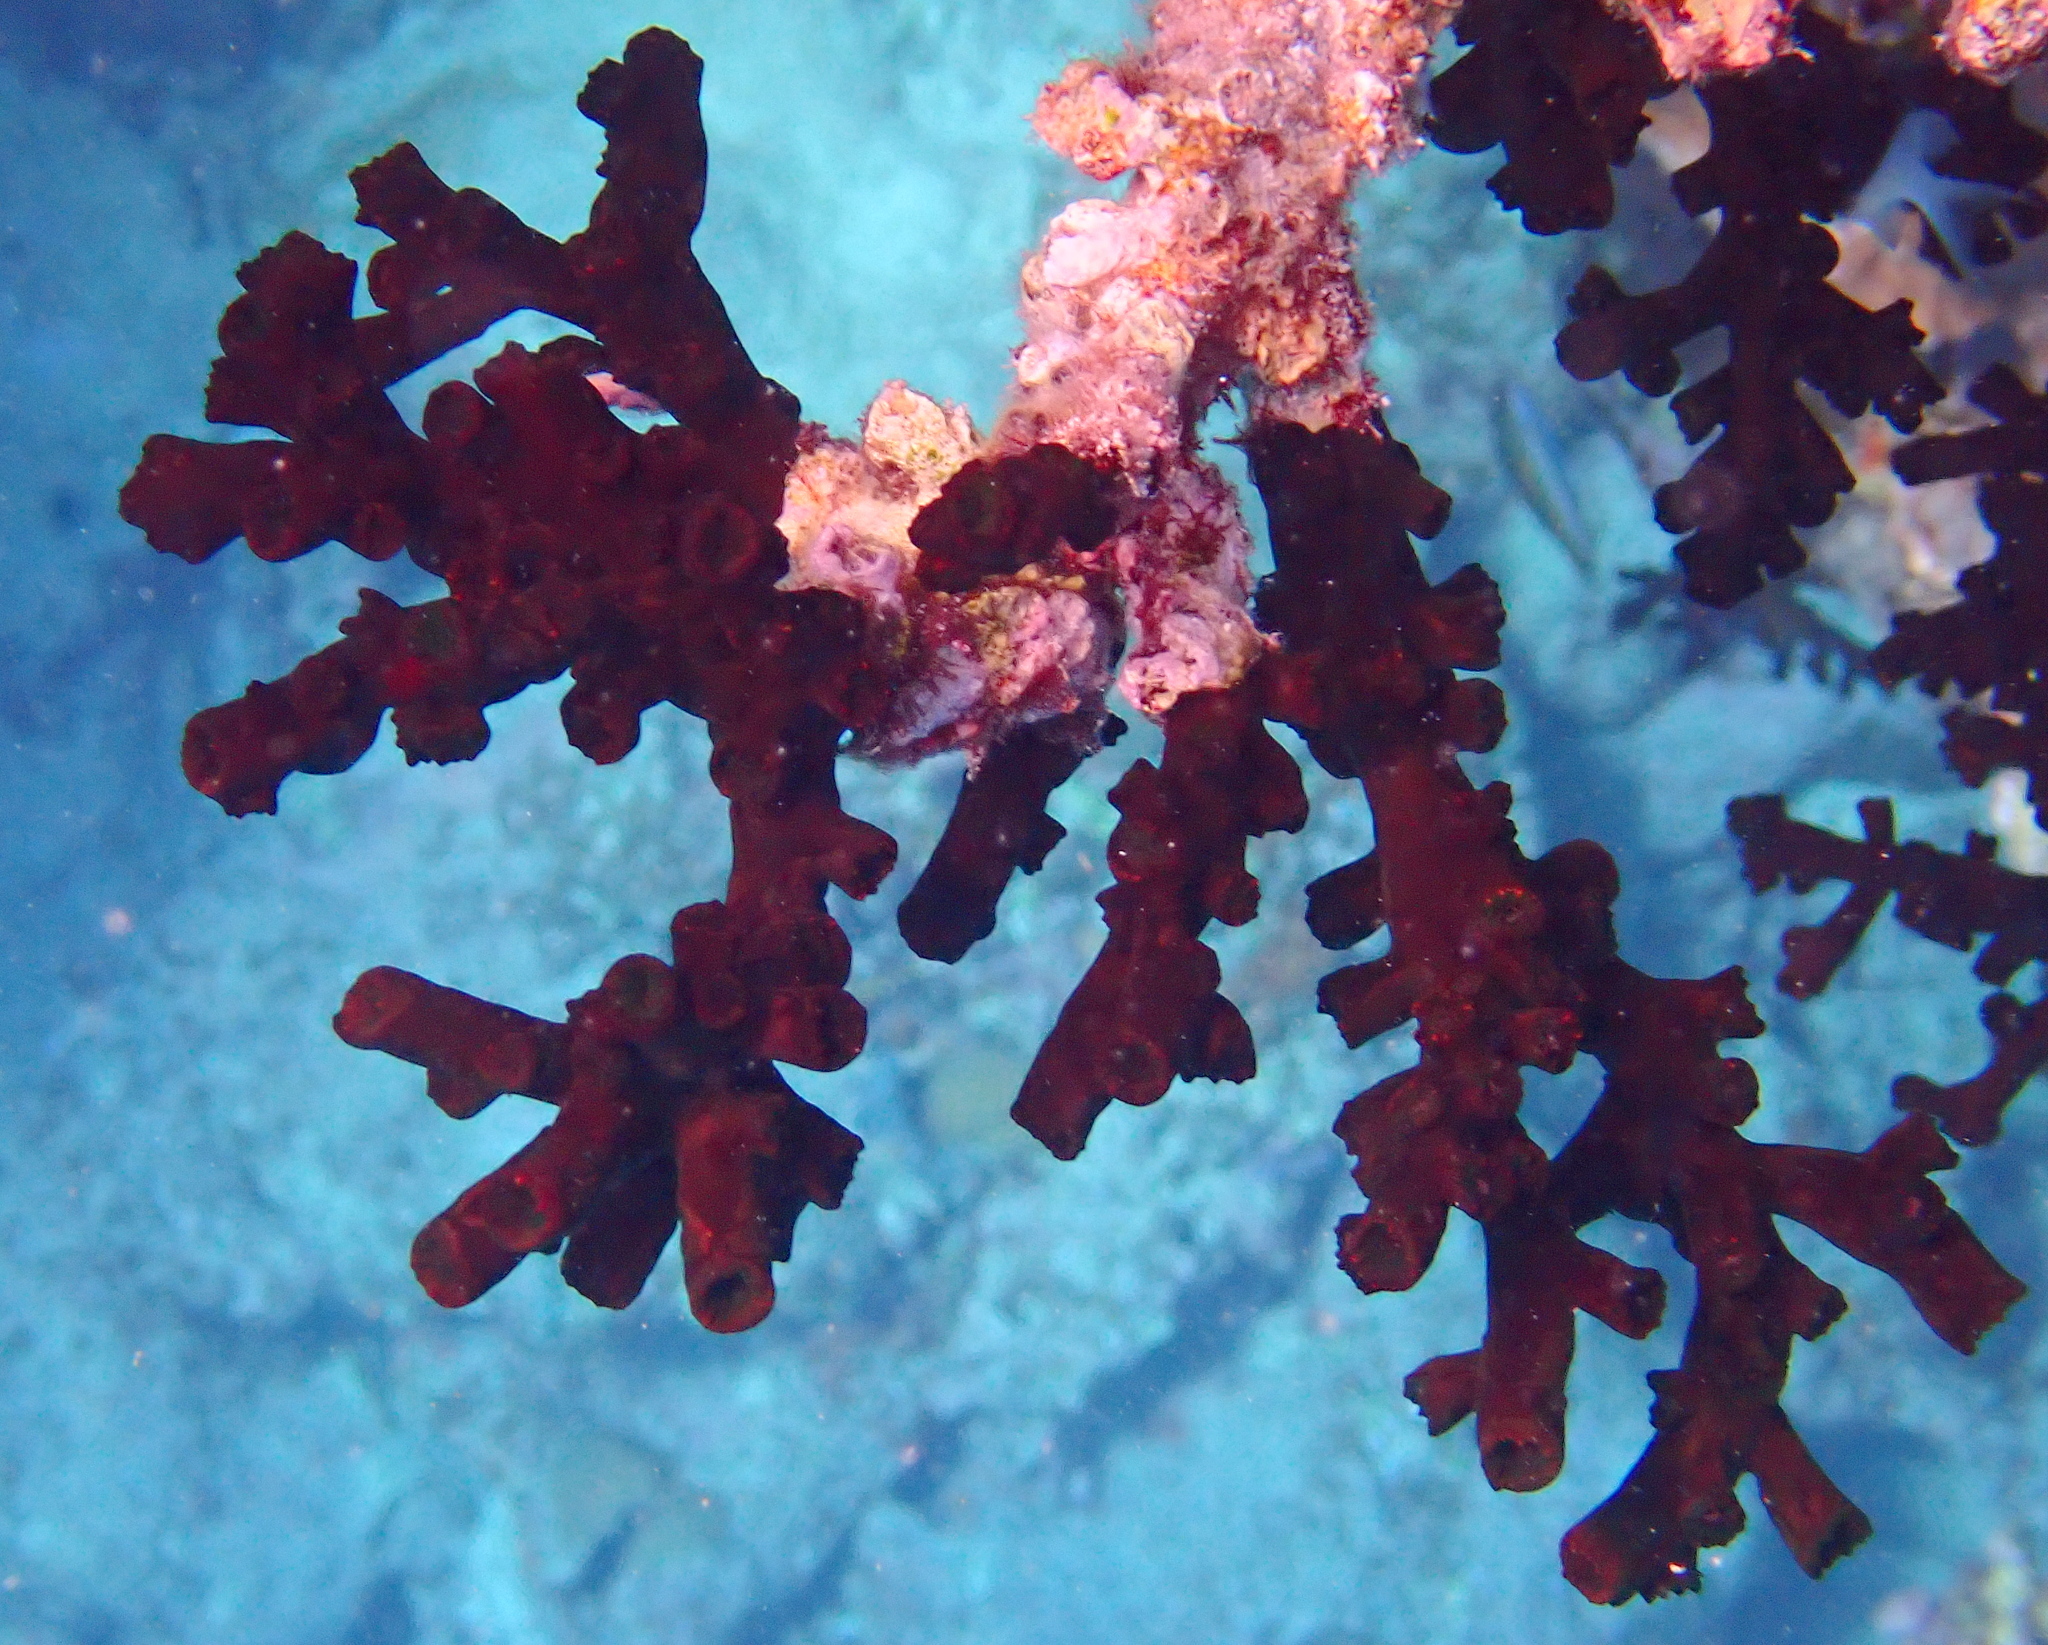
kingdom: Animalia
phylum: Cnidaria
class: Anthozoa
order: Scleractinia
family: Dendrophylliidae
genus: Tubastraea
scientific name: Tubastraea micranthus
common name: Black sun coral
